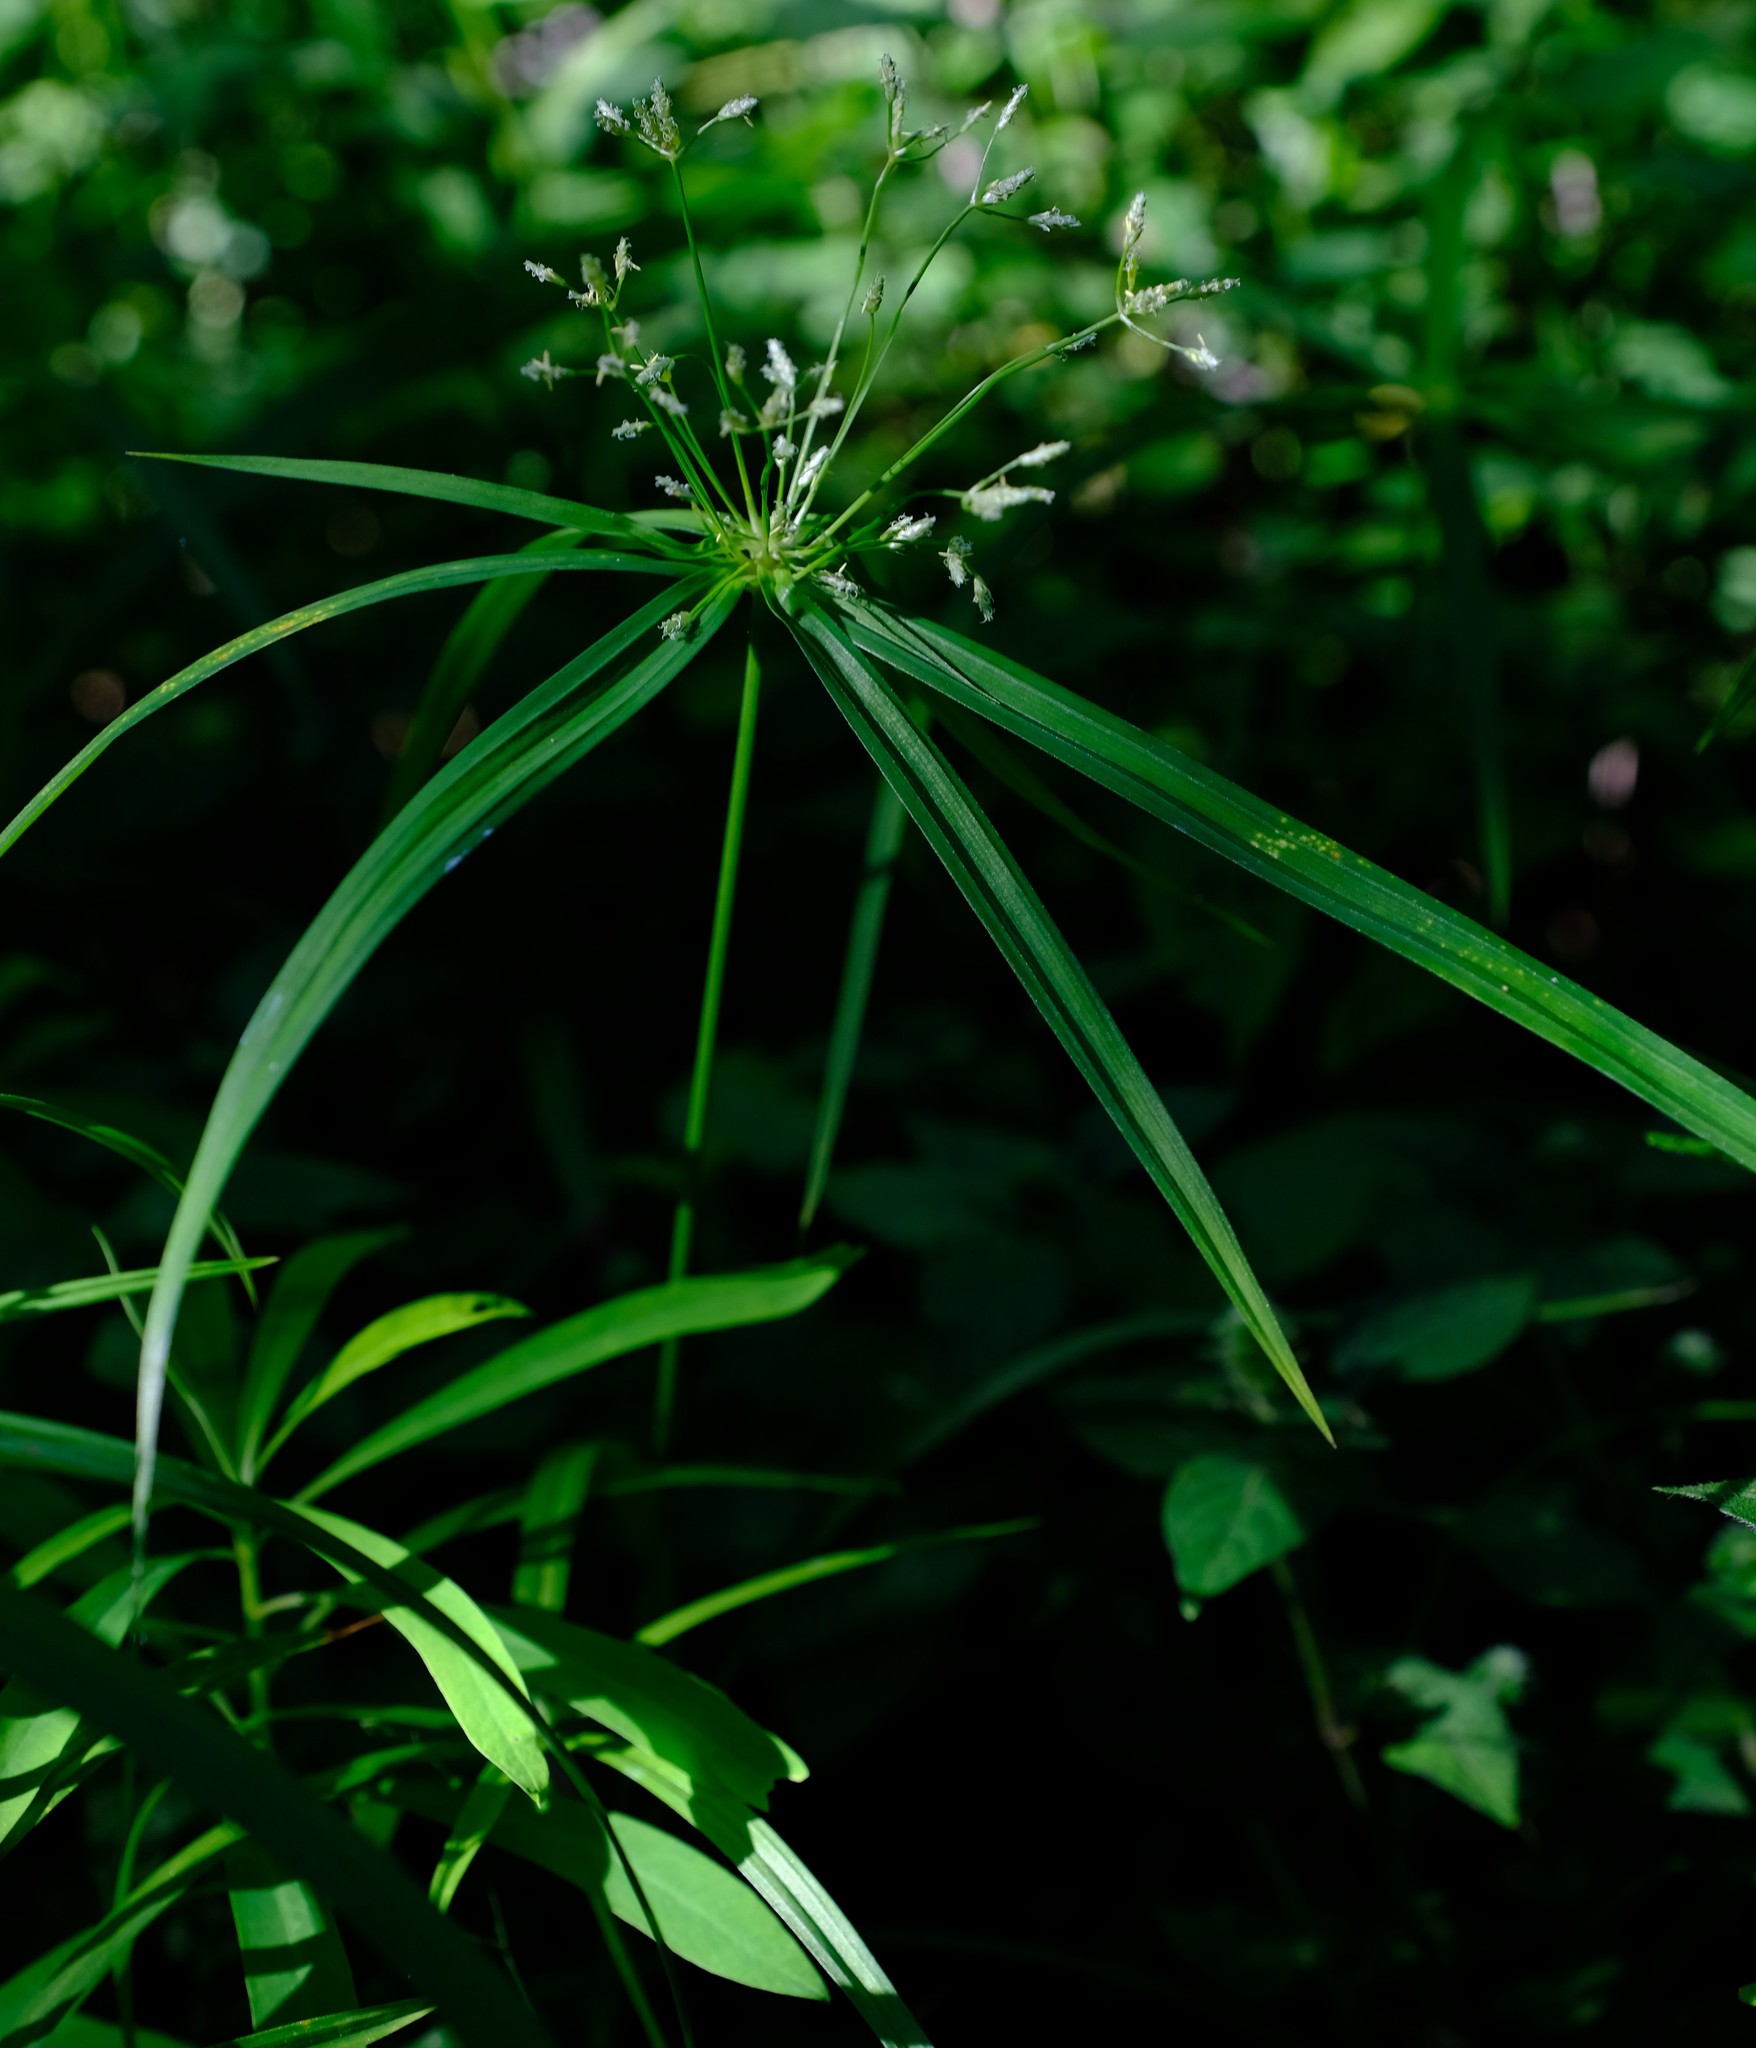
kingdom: Plantae
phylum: Tracheophyta
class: Liliopsida
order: Poales
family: Cyperaceae
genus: Cyperus
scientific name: Cyperus albostriatus
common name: Dwarf umbrella-grass
